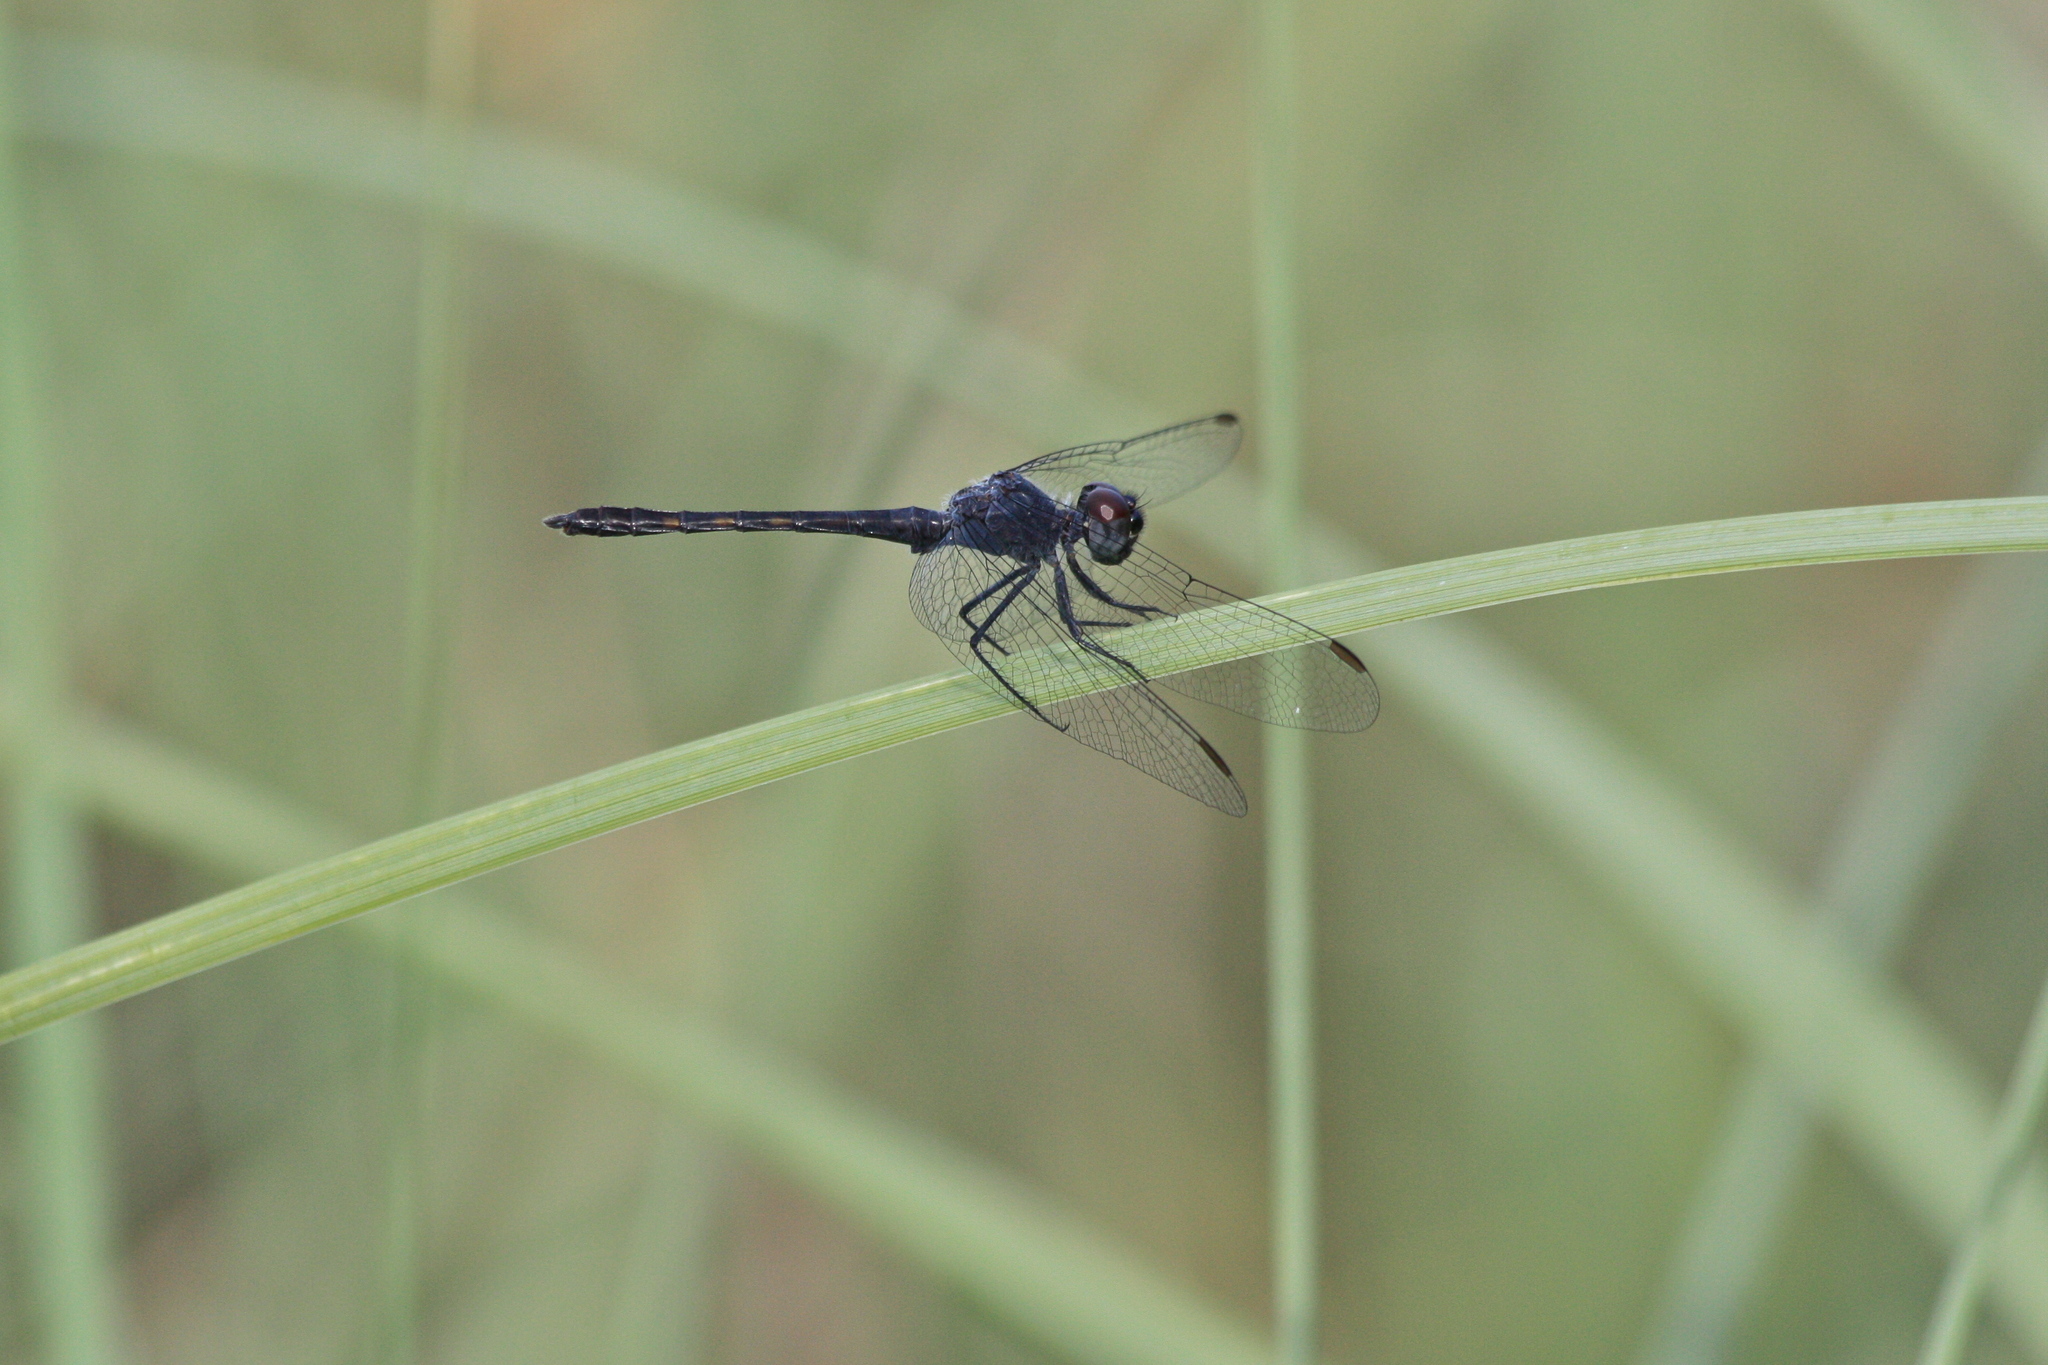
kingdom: Animalia
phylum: Arthropoda
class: Insecta
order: Odonata
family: Libellulidae
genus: Erythrodiplax
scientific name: Erythrodiplax berenice
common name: Seaside dragonlet
